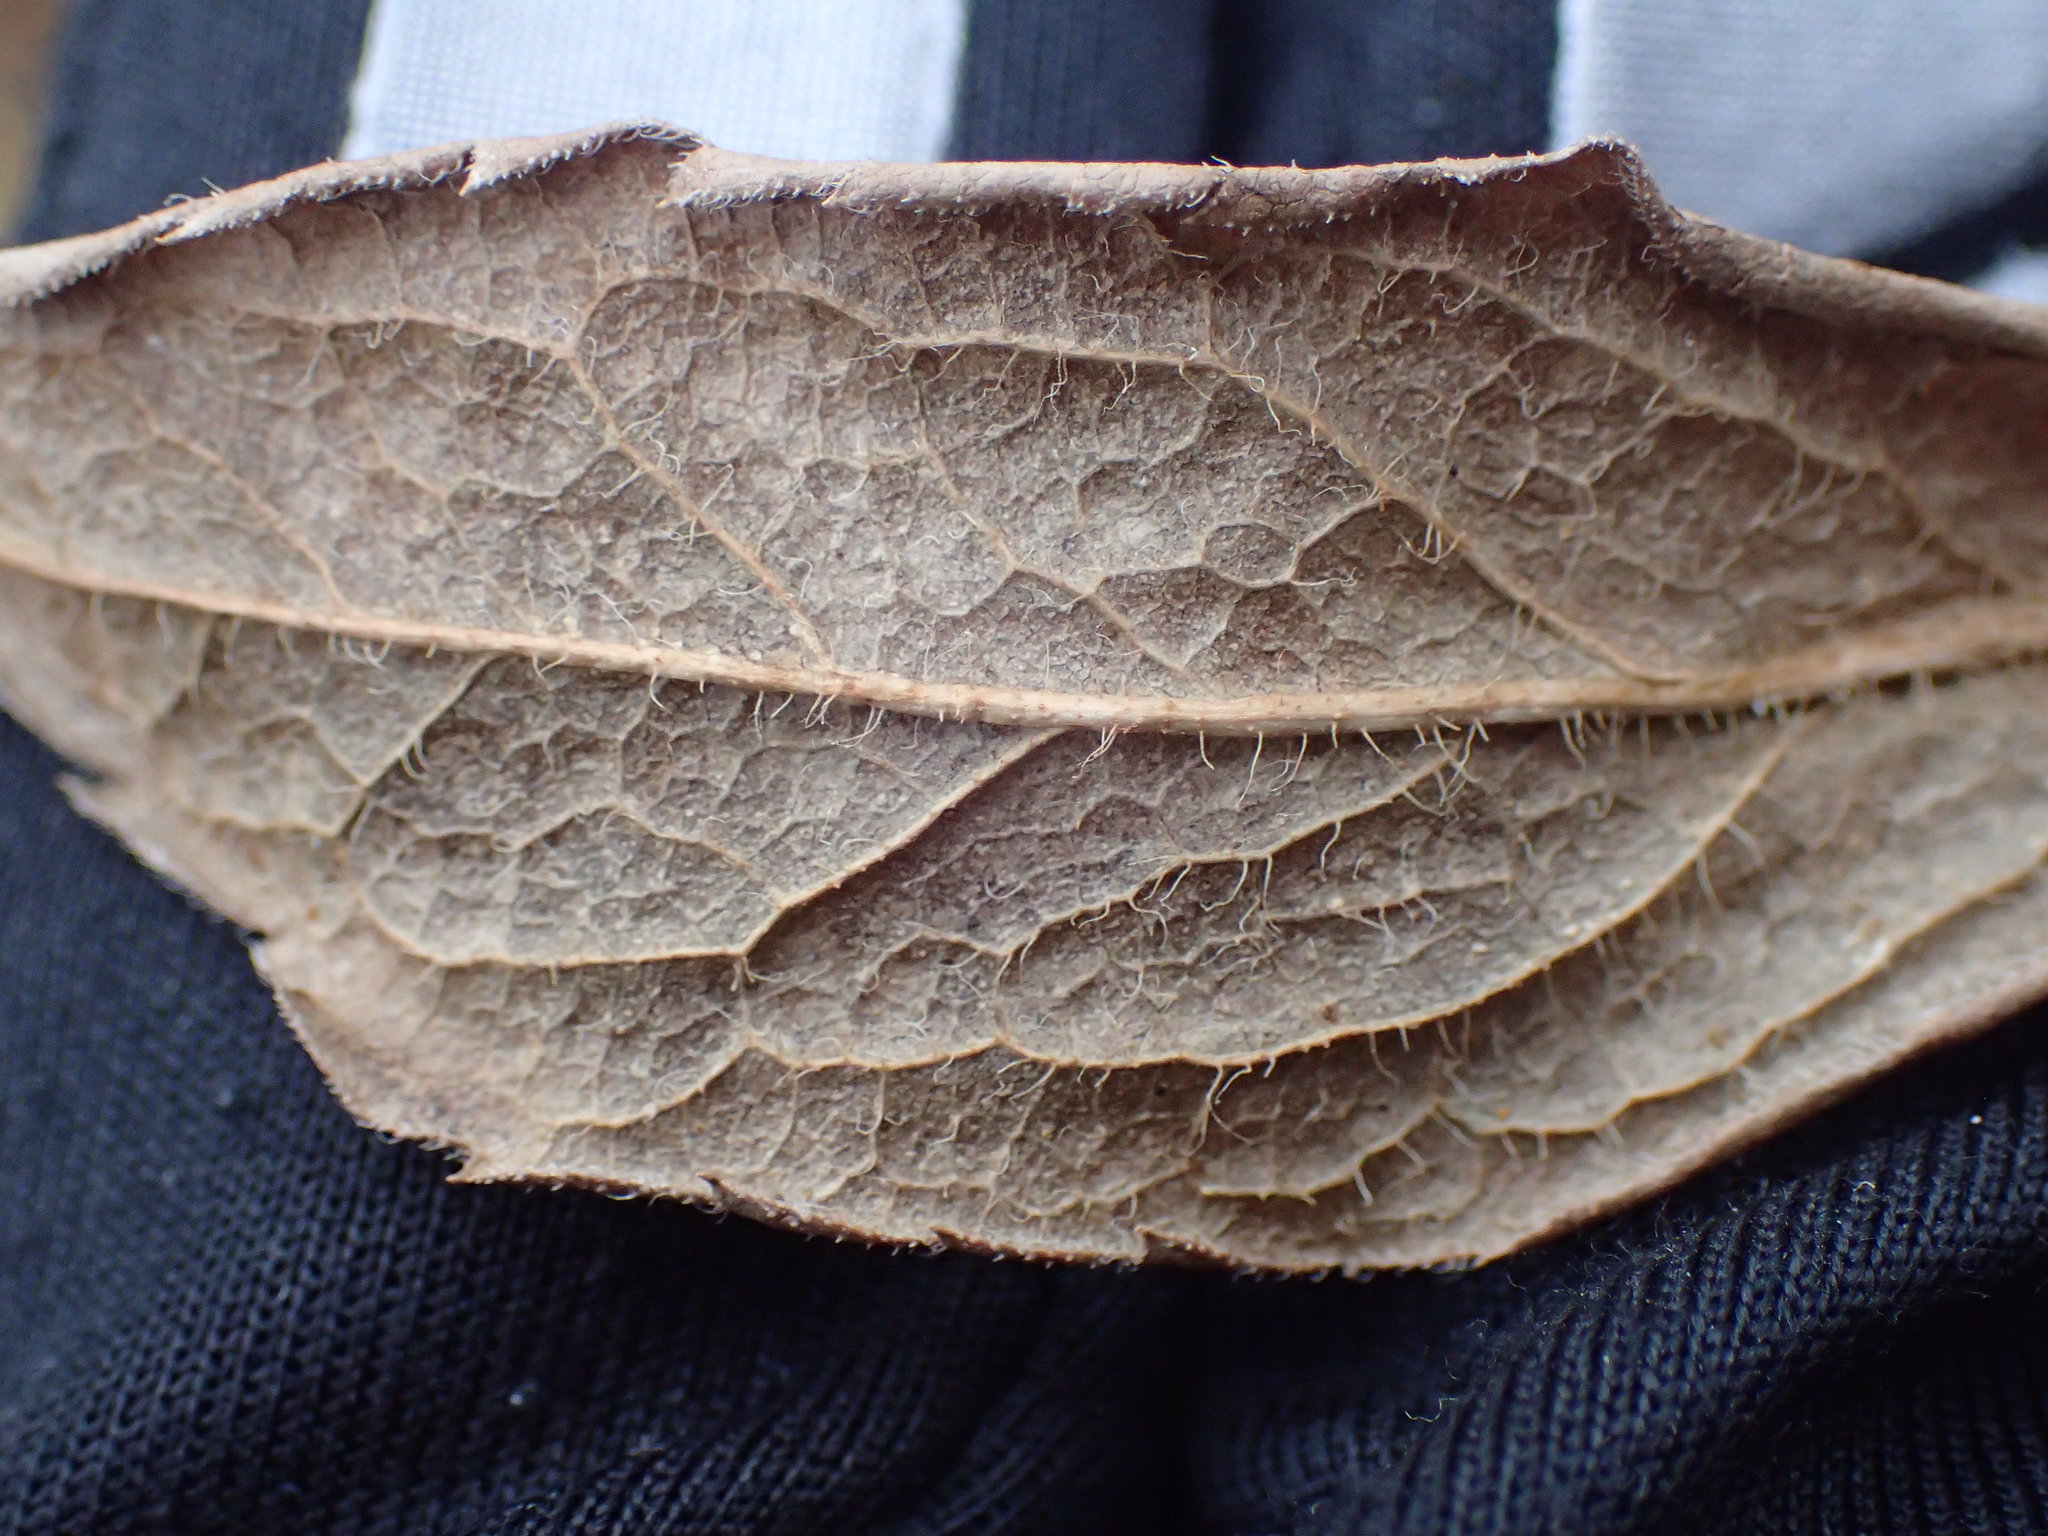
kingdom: Plantae
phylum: Tracheophyta
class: Magnoliopsida
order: Asterales
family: Asteraceae
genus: Solidago
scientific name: Solidago rugosa
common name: Rough-stemmed goldenrod
